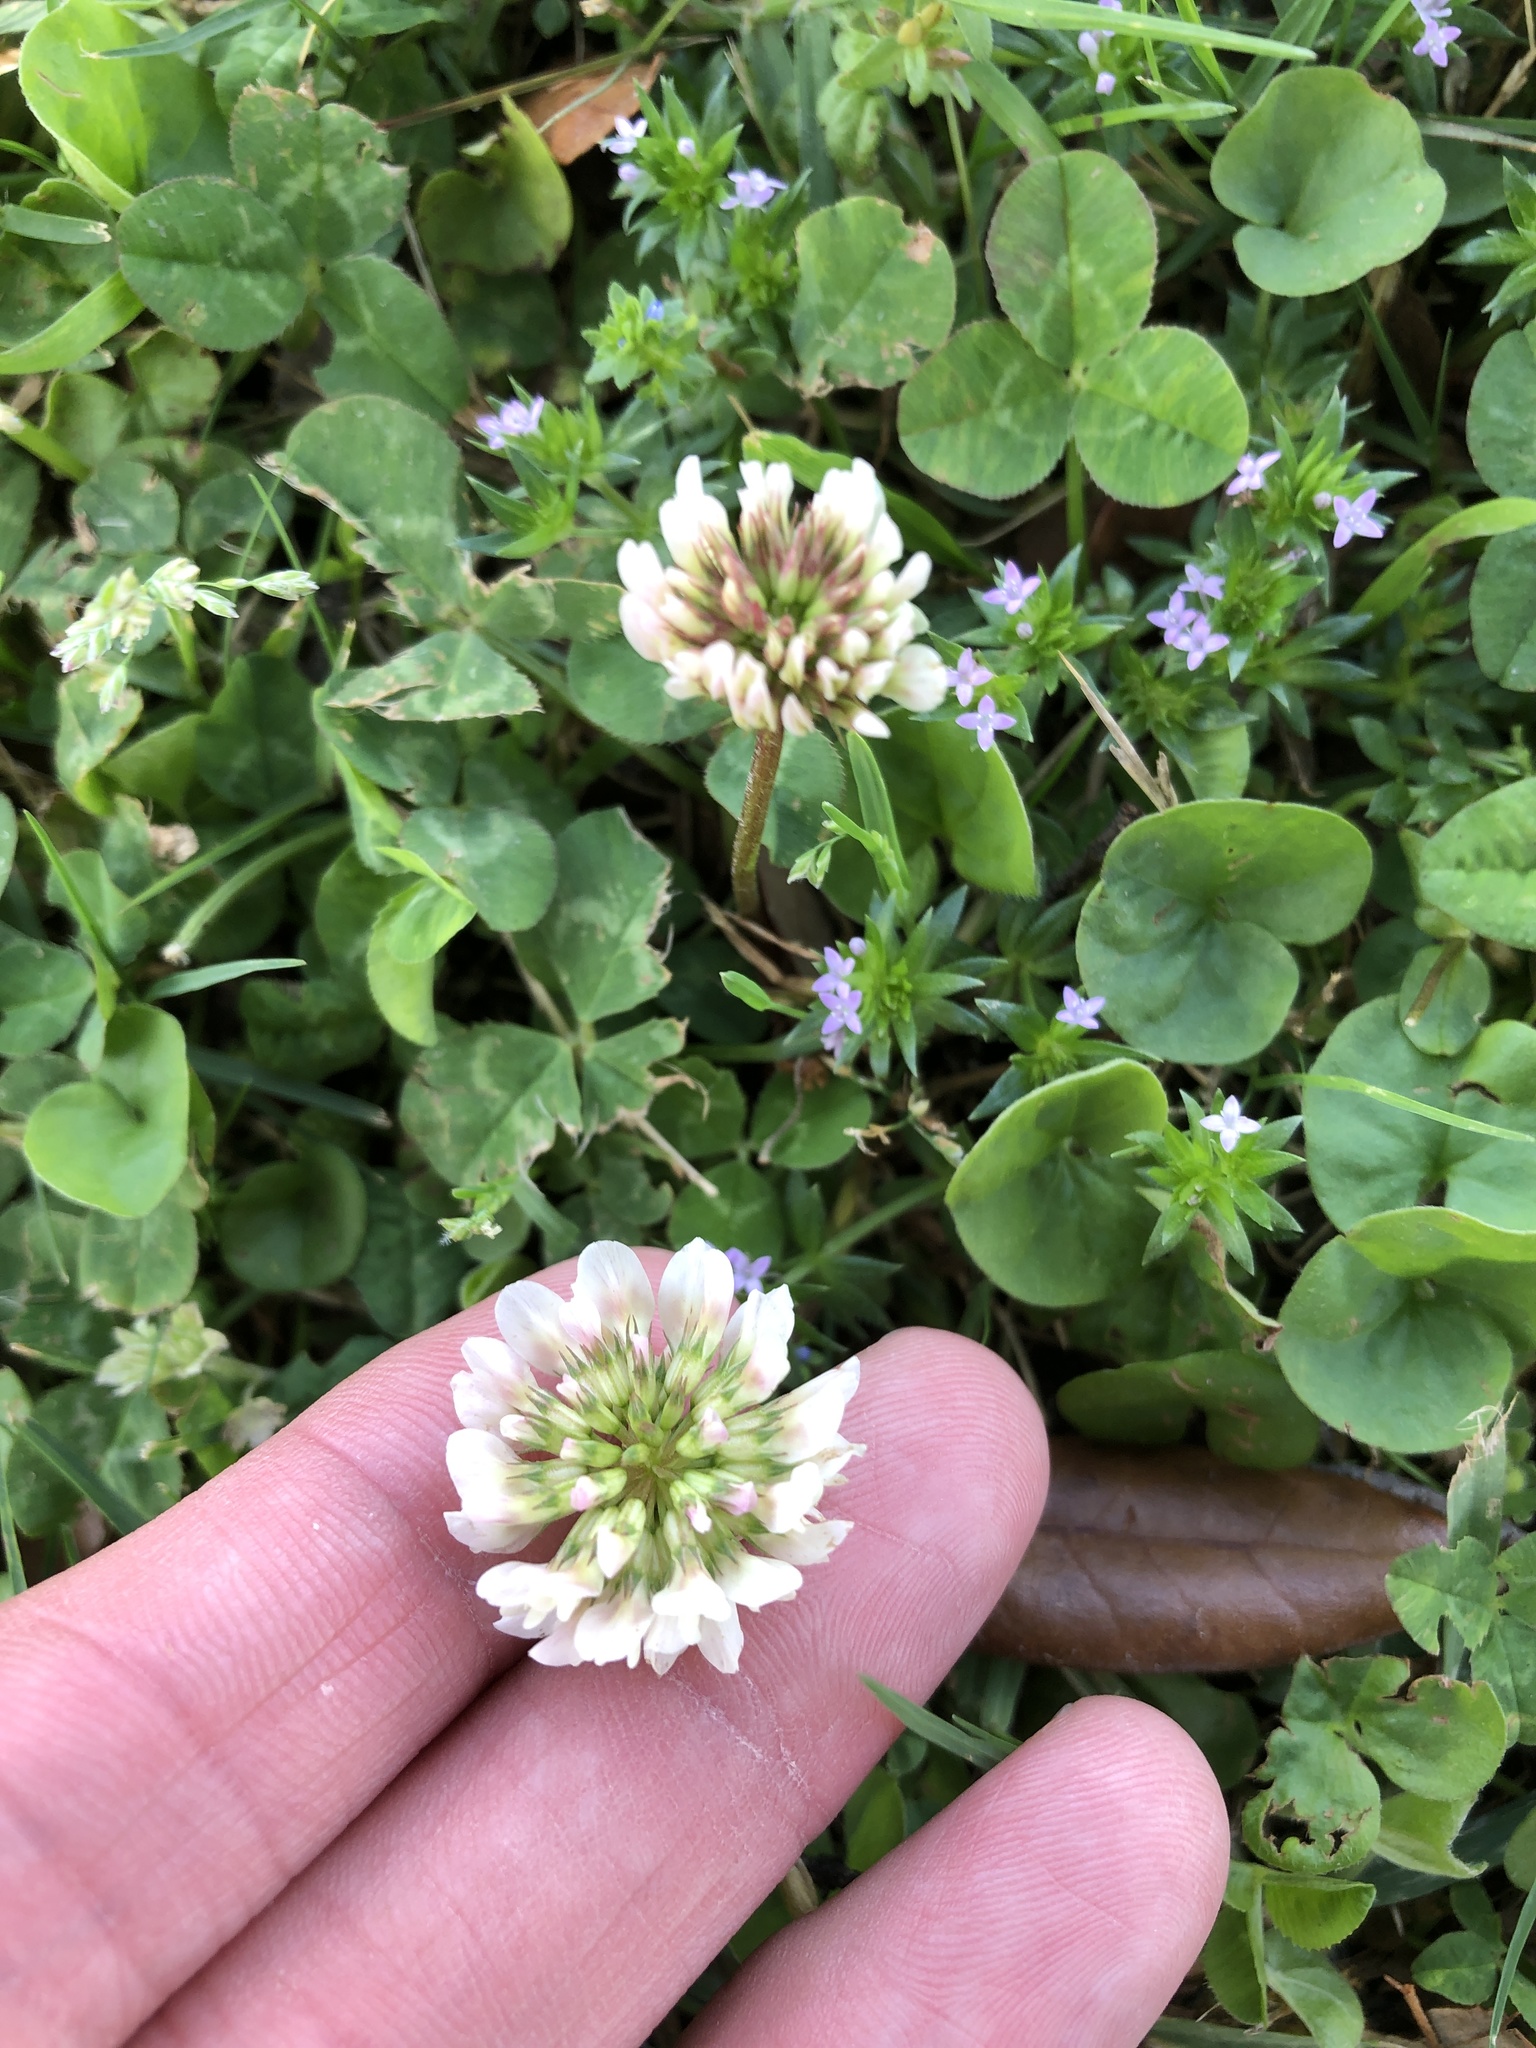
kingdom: Plantae
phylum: Tracheophyta
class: Magnoliopsida
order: Fabales
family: Fabaceae
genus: Trifolium
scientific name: Trifolium repens
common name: White clover
